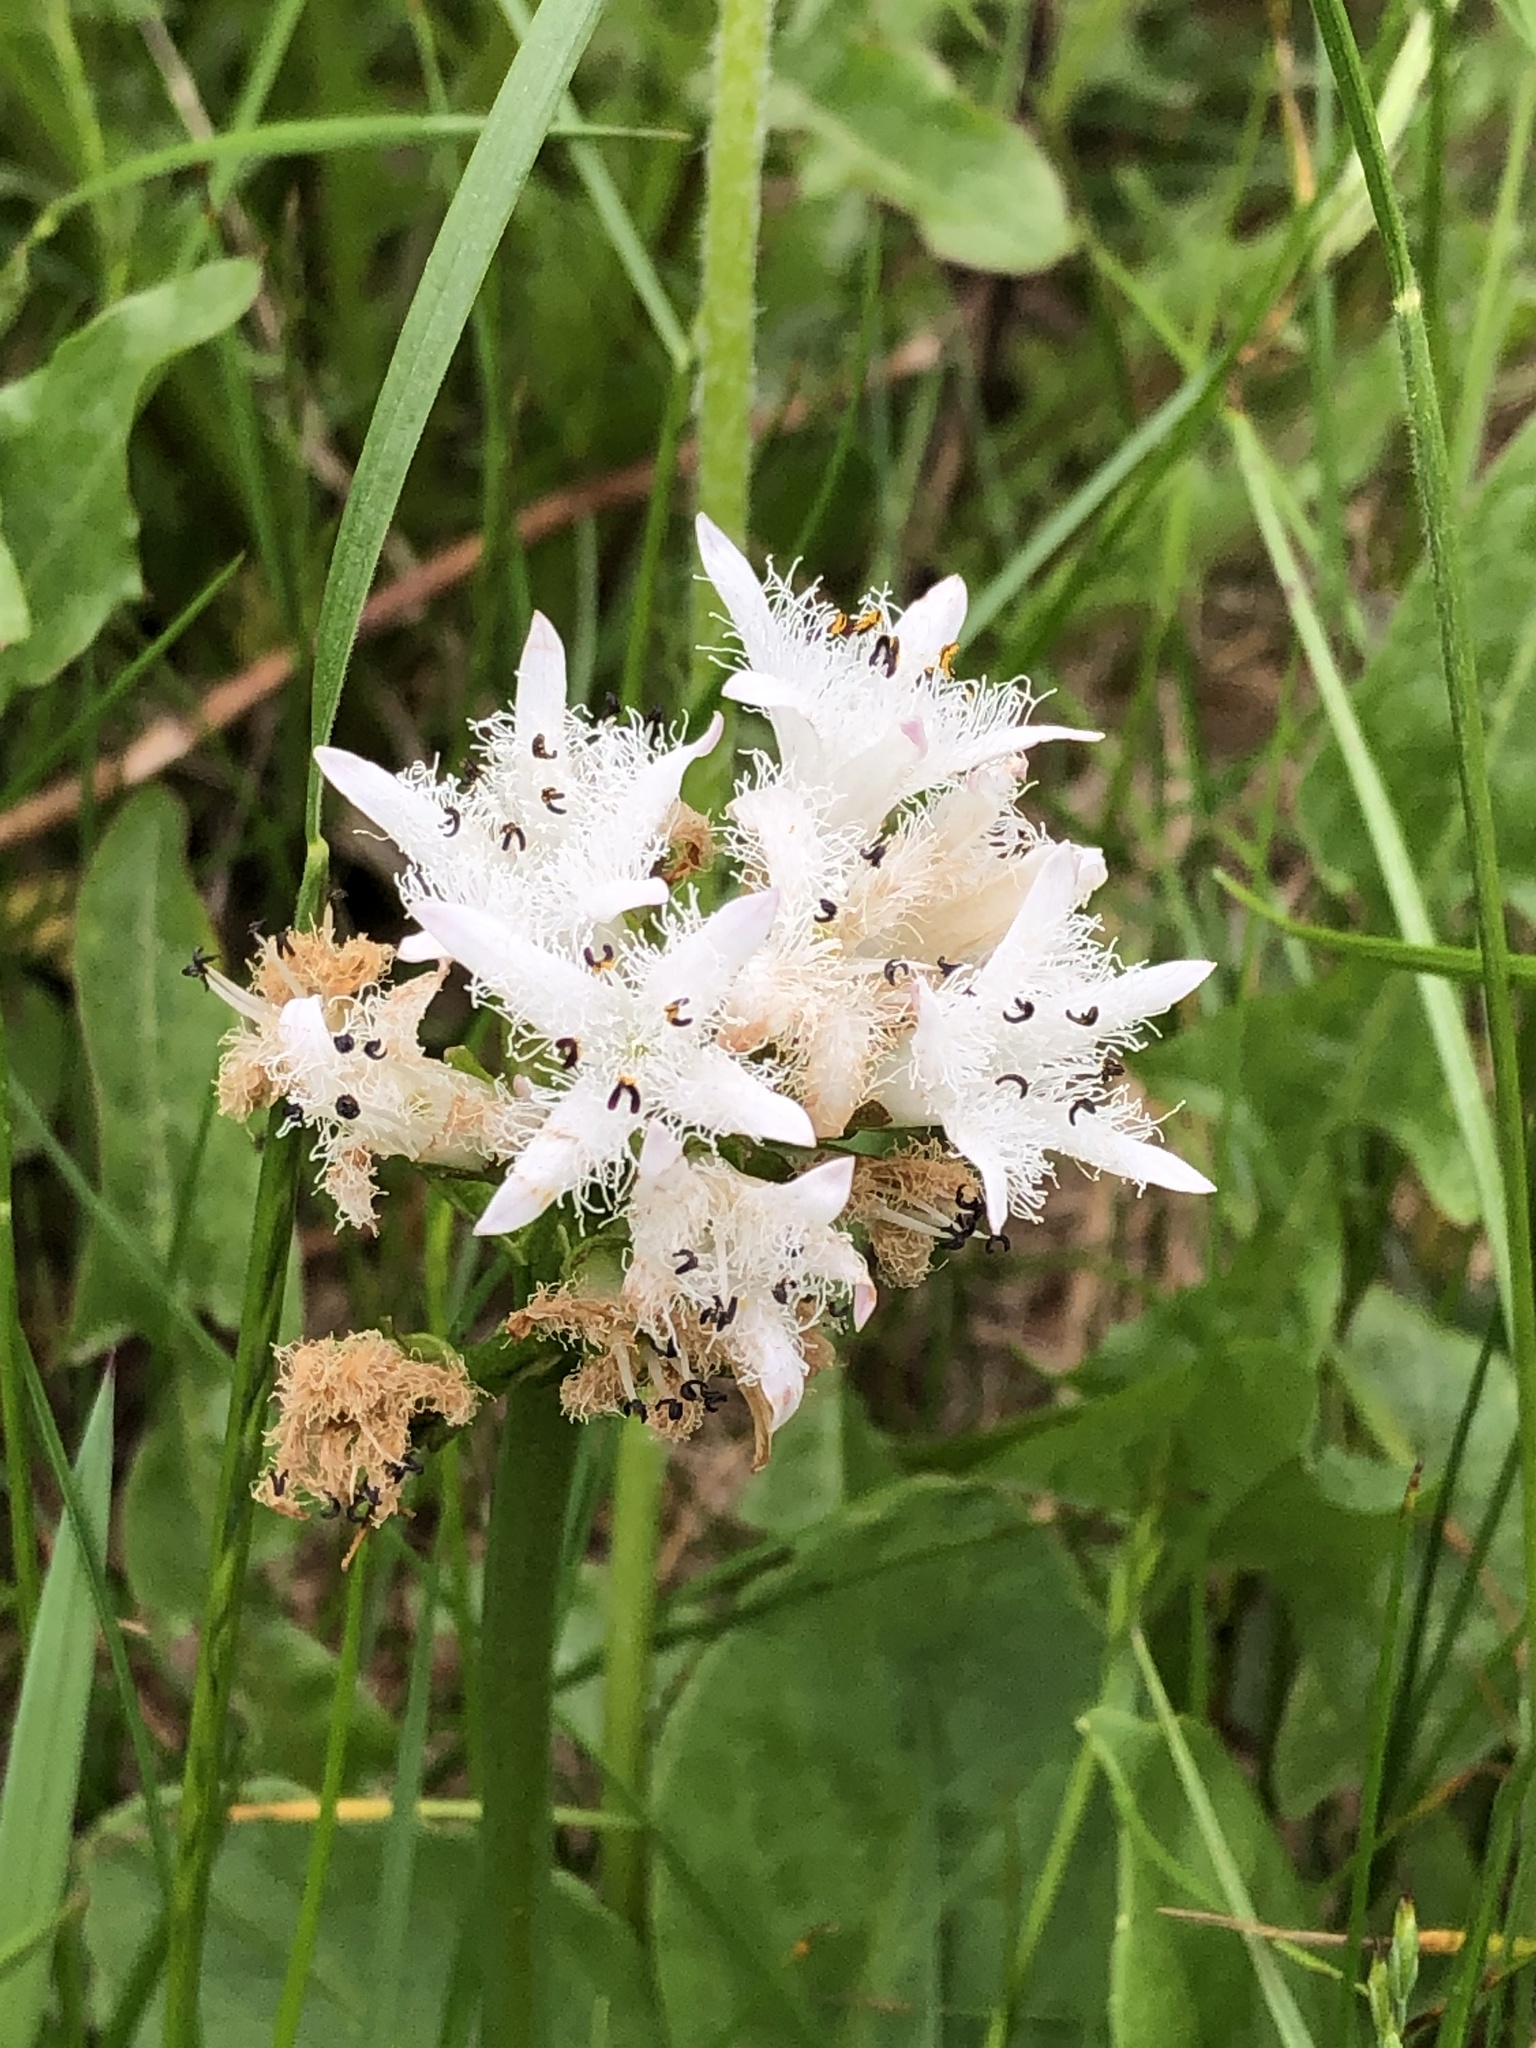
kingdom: Plantae
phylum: Tracheophyta
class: Magnoliopsida
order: Asterales
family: Menyanthaceae
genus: Menyanthes
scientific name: Menyanthes trifoliata
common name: Bogbean
